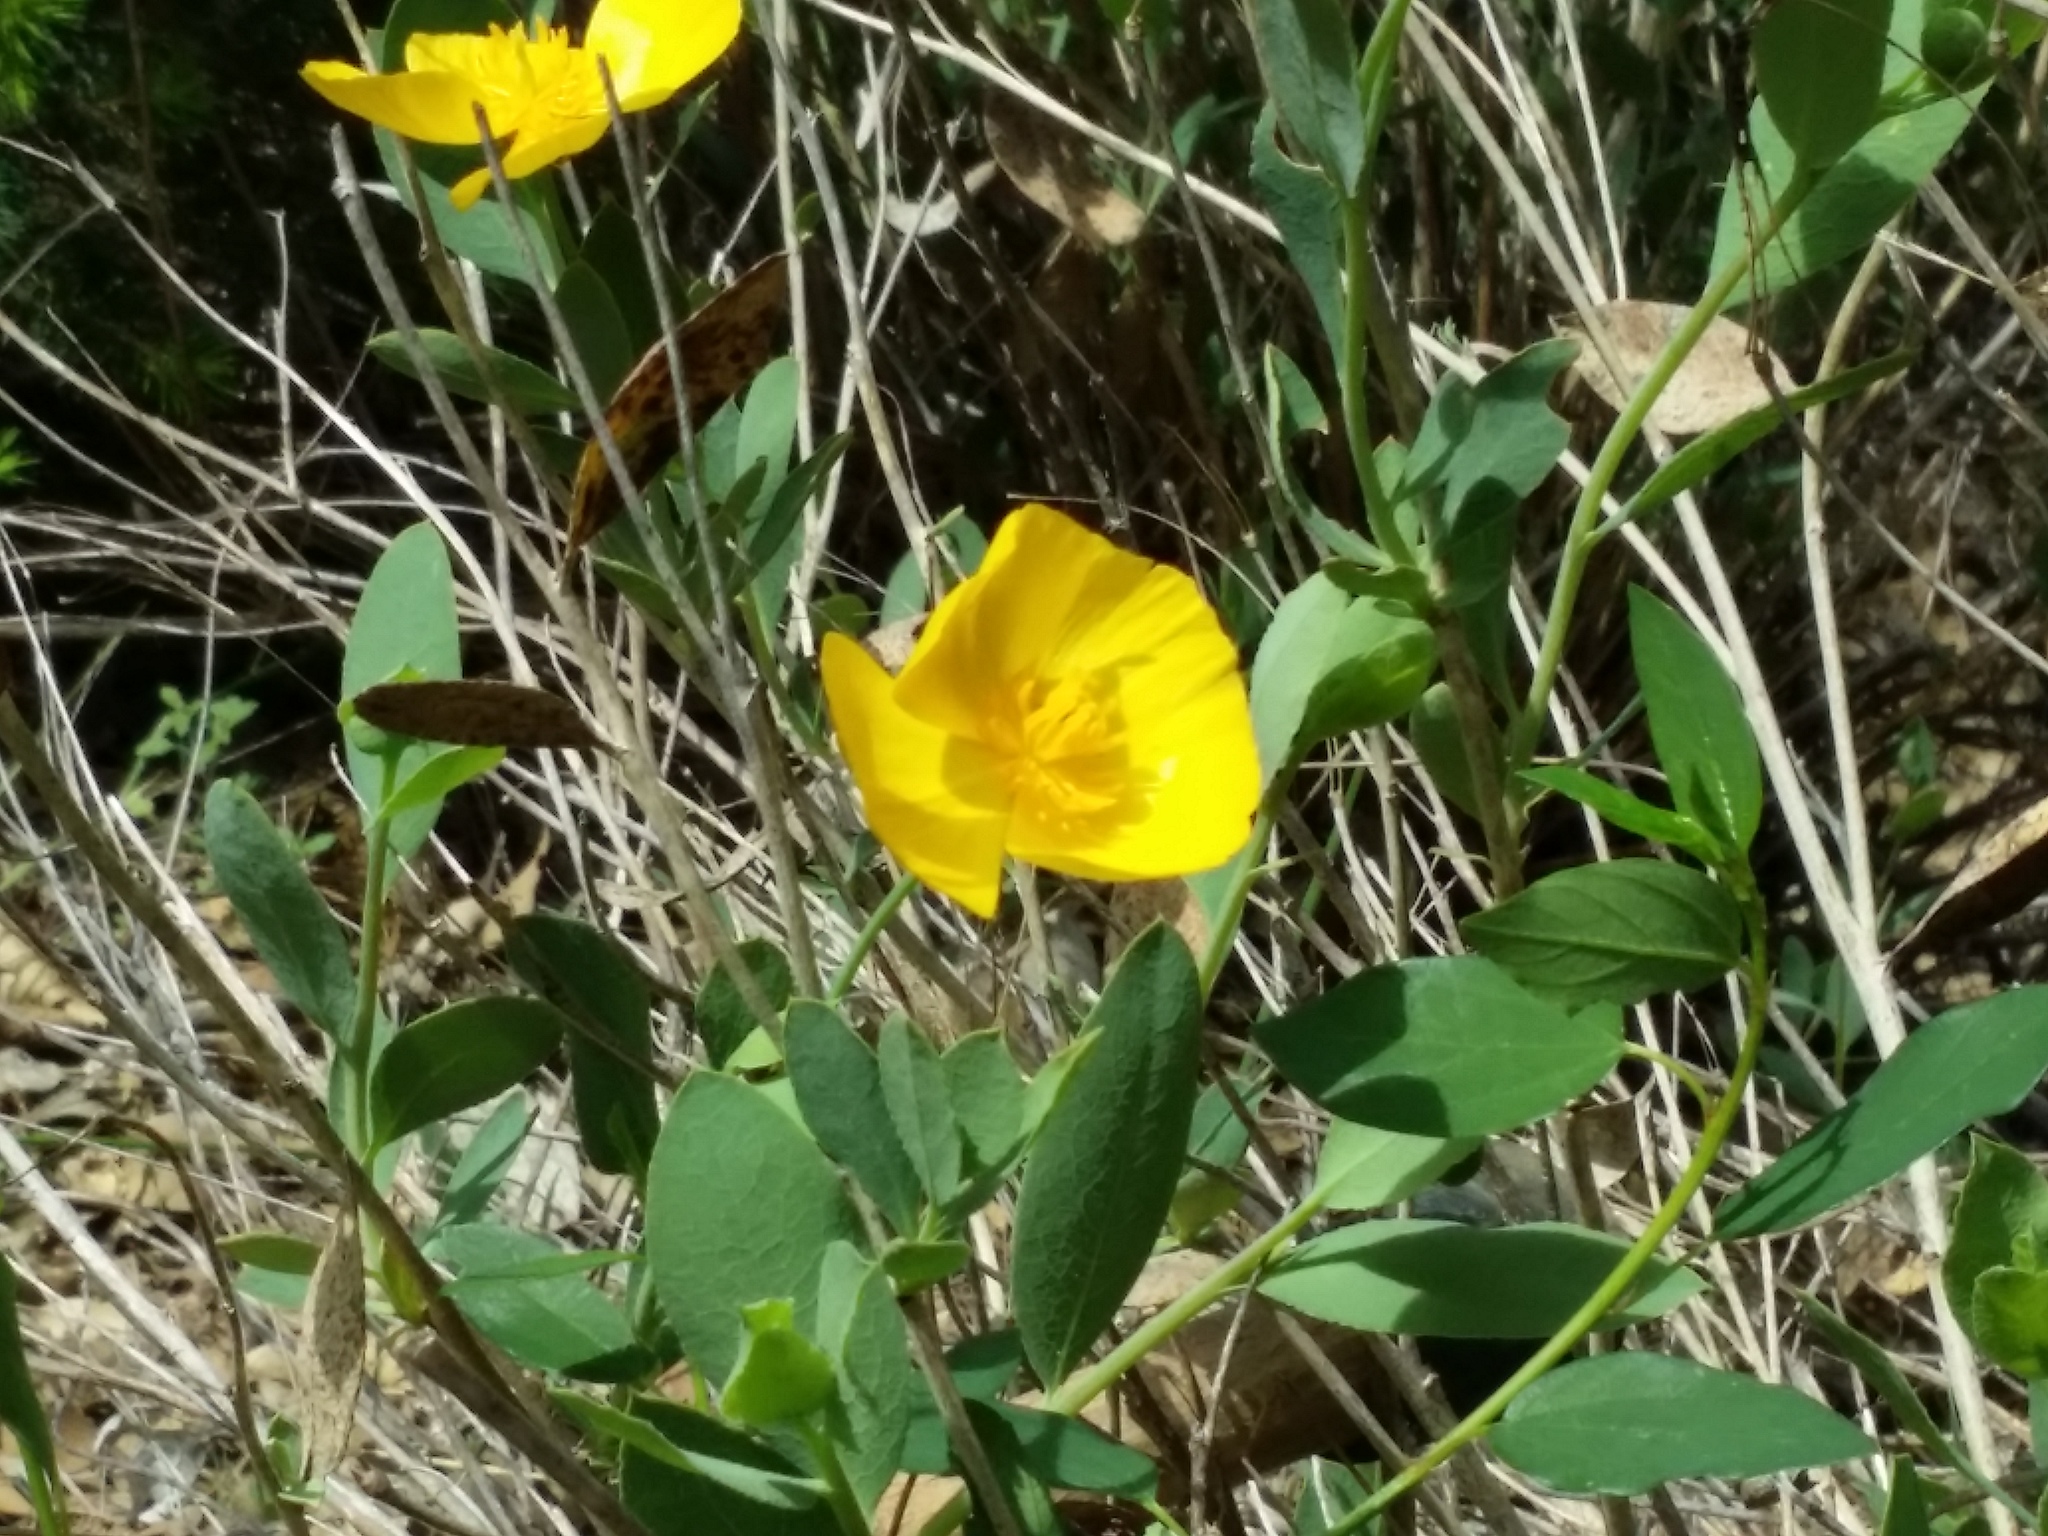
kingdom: Plantae
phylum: Tracheophyta
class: Magnoliopsida
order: Ranunculales
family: Papaveraceae
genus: Dendromecon
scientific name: Dendromecon rigida
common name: Tree poppy
